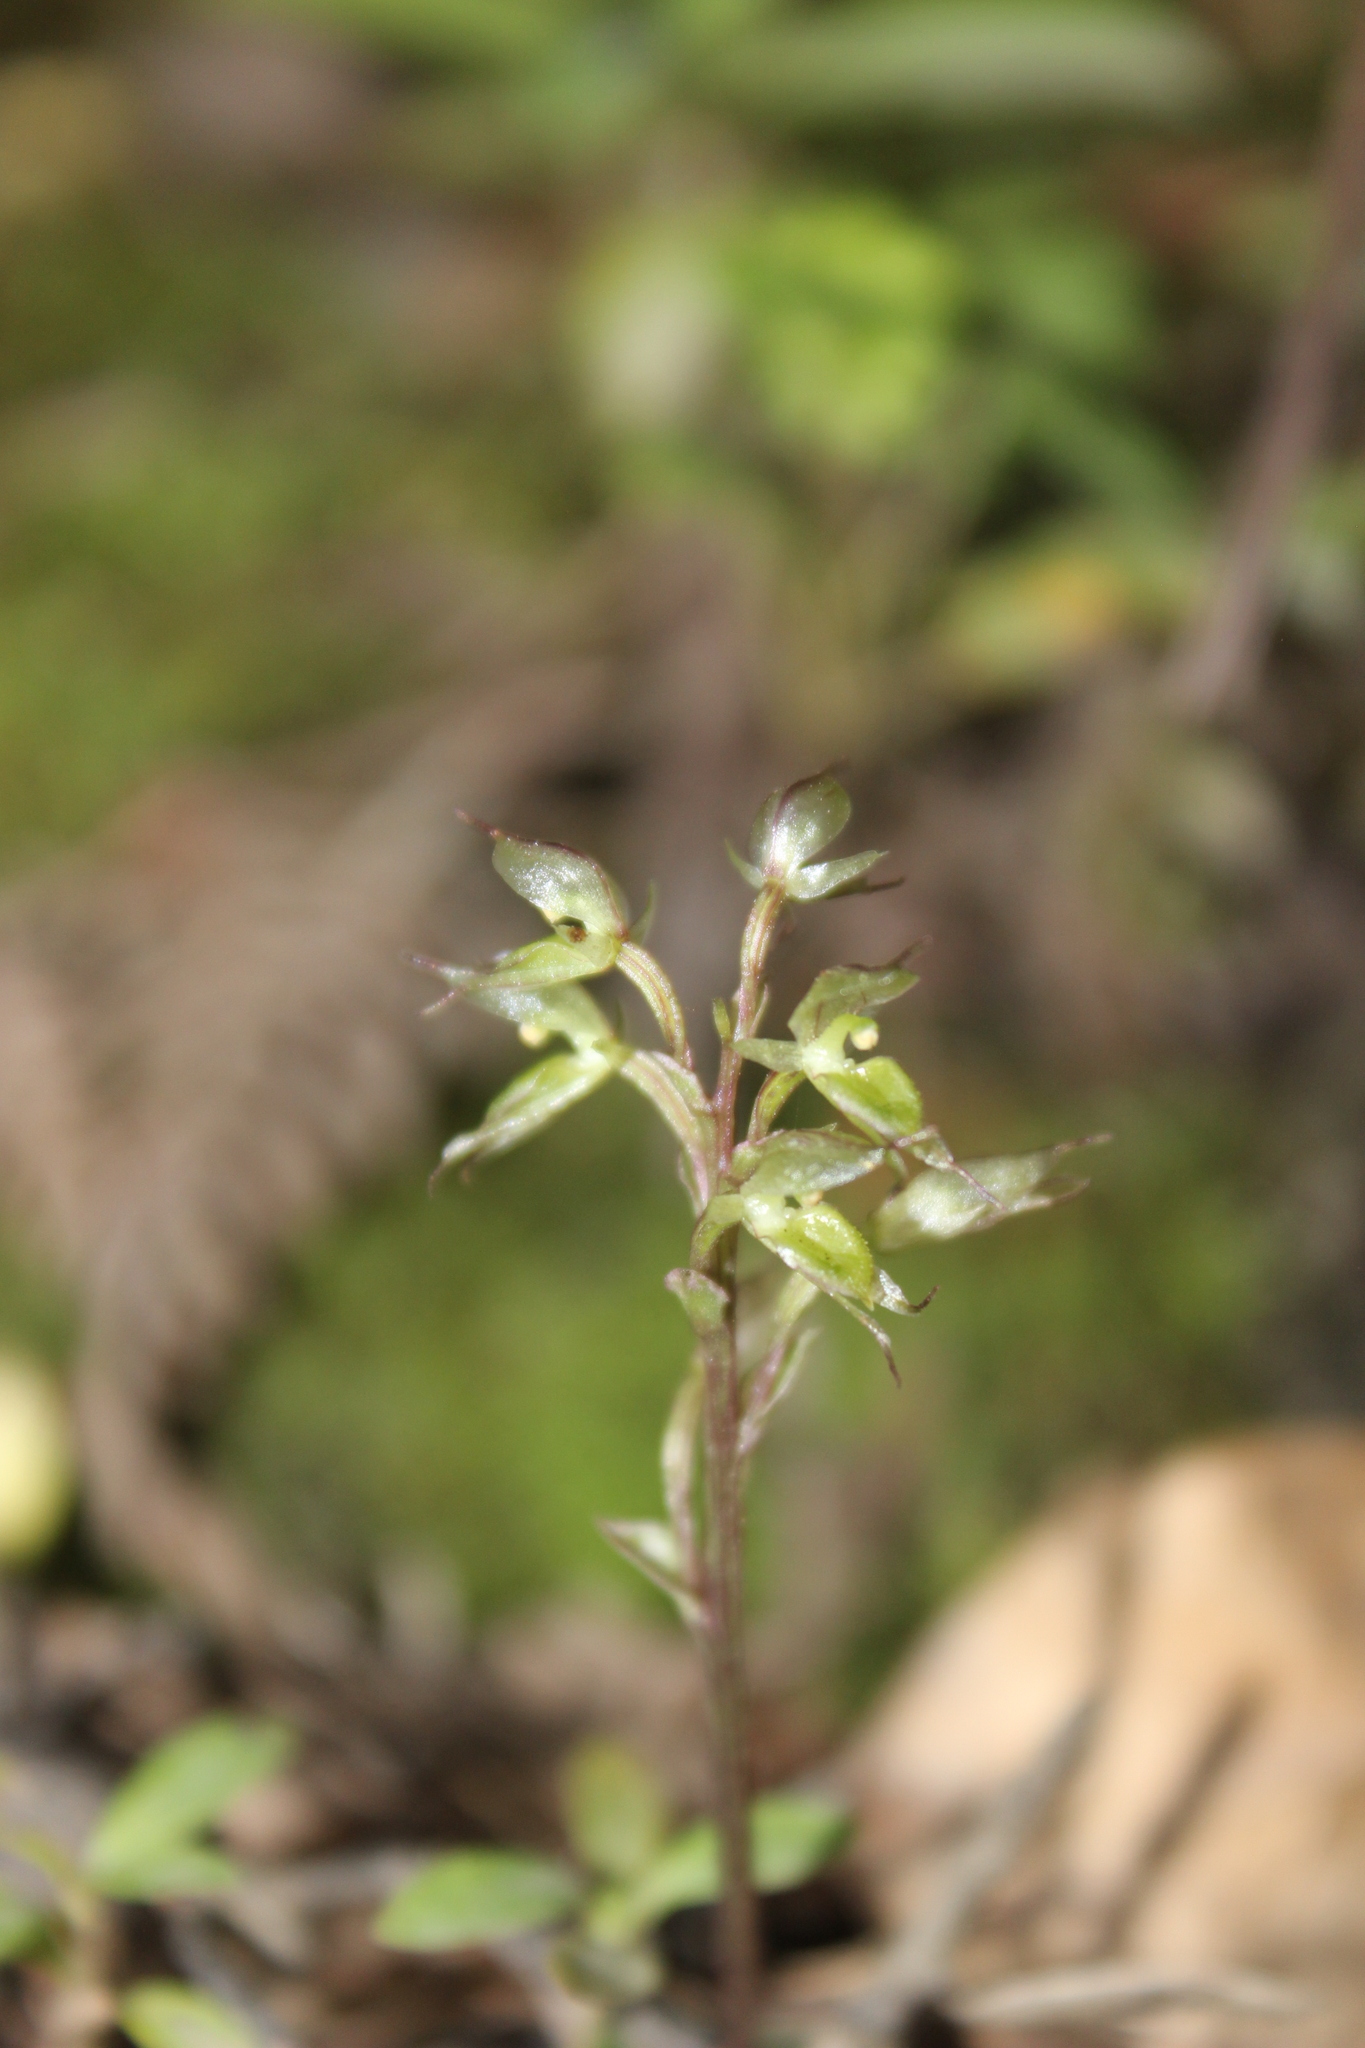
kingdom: Plantae
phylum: Tracheophyta
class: Liliopsida
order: Asparagales
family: Orchidaceae
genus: Acianthus
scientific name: Acianthus sinclairii
